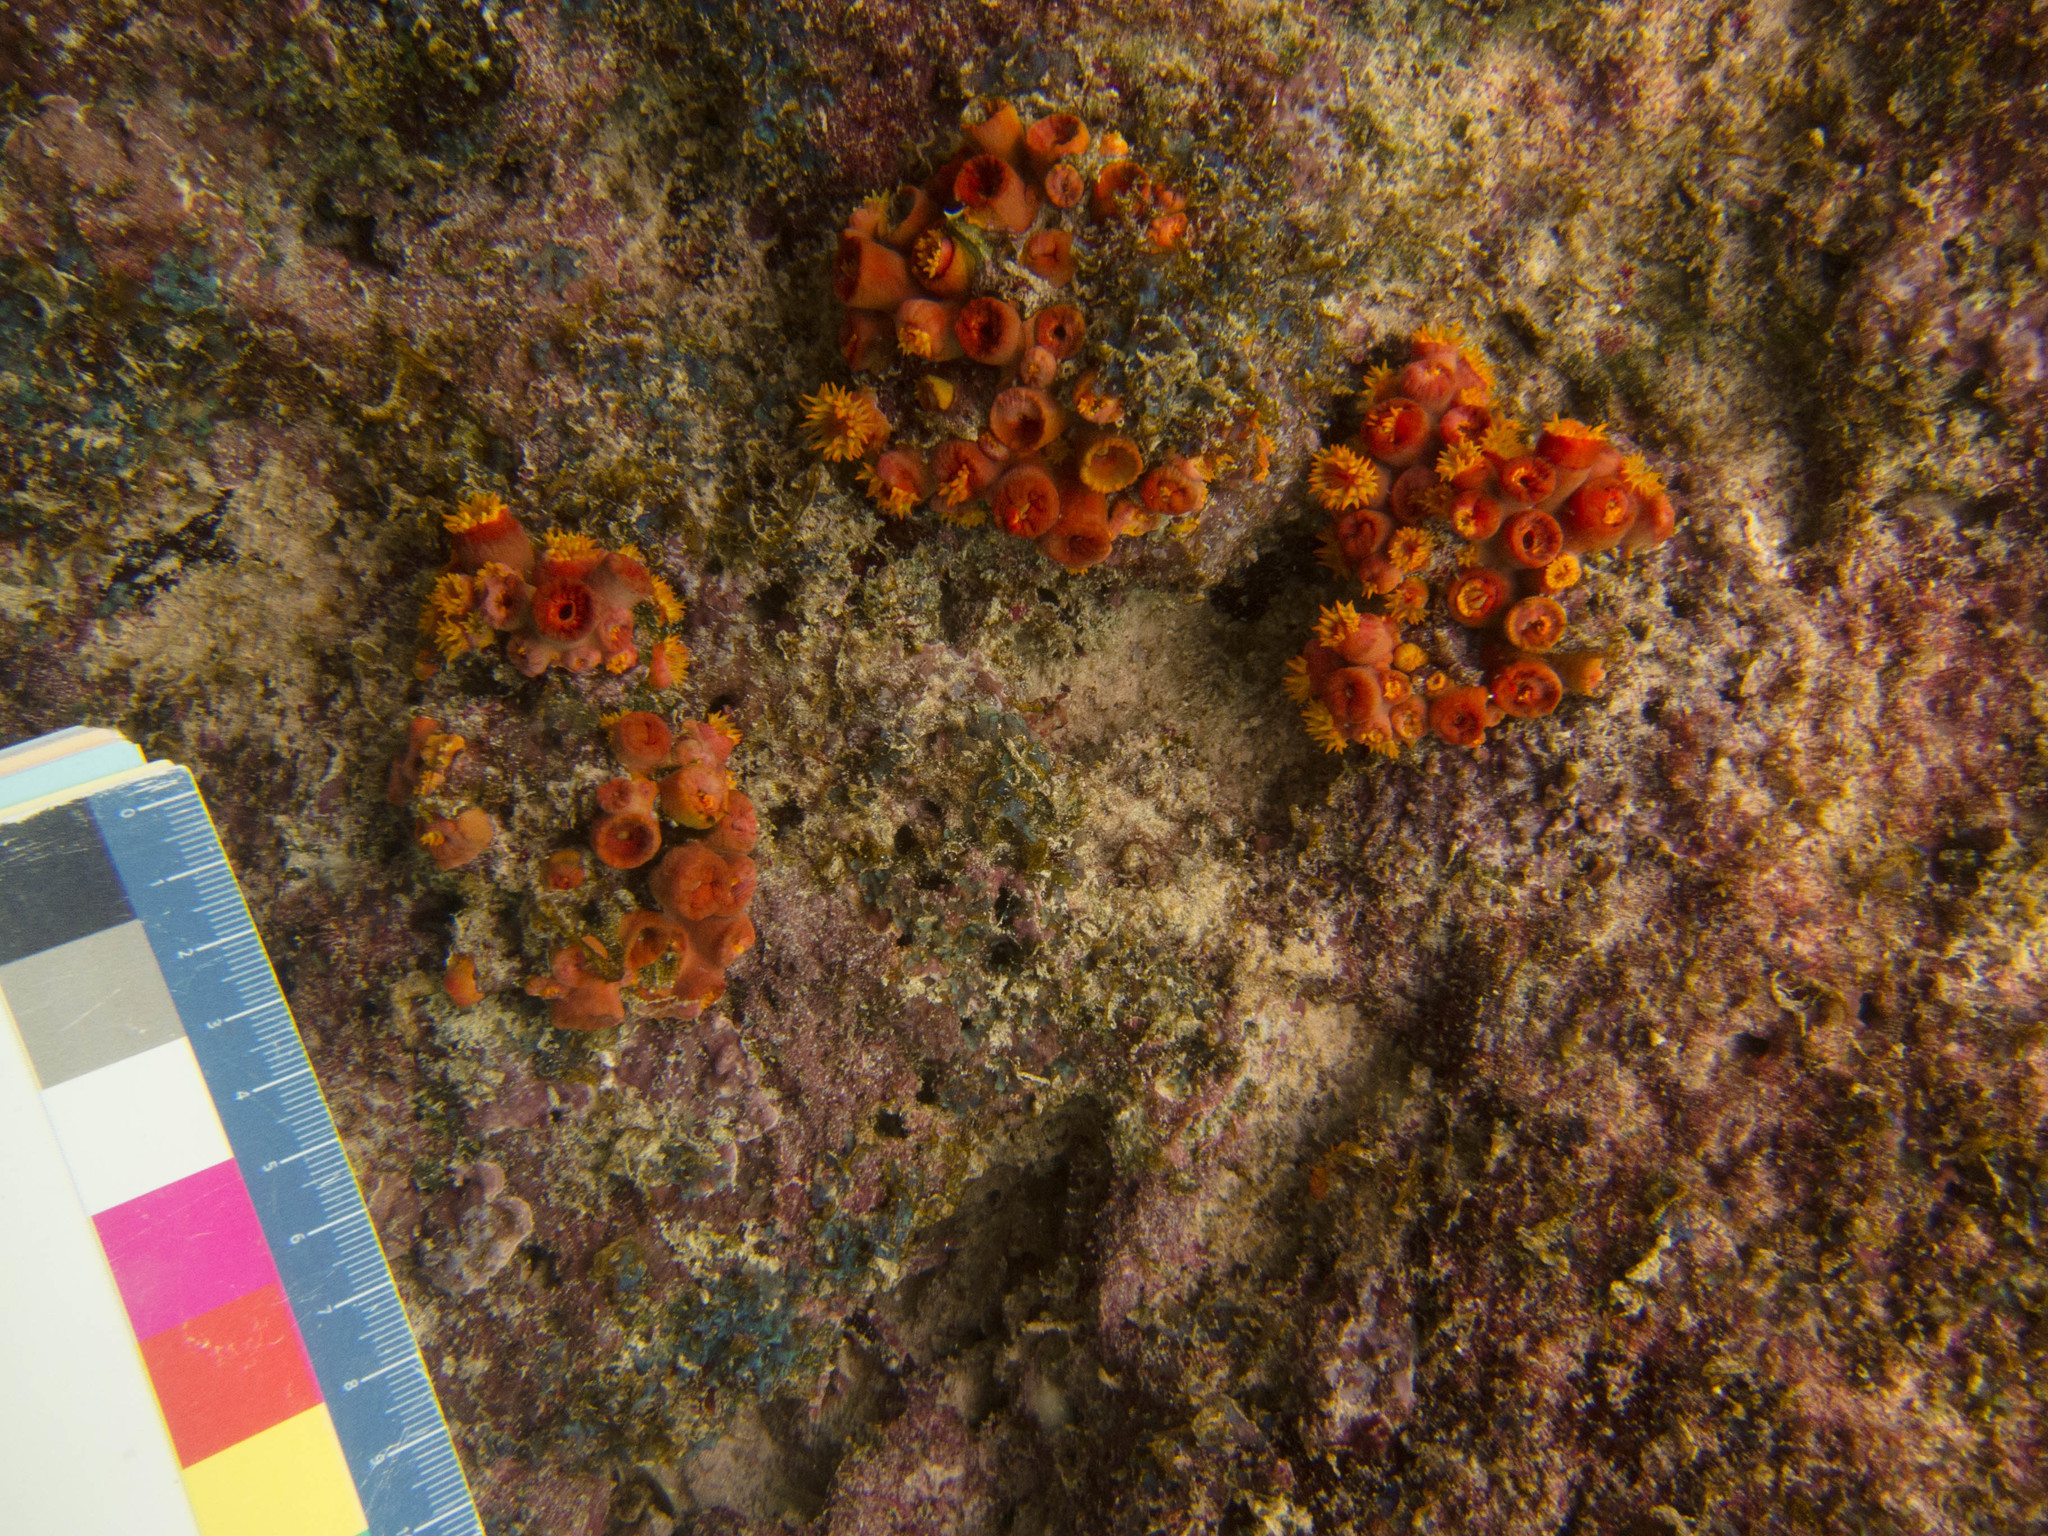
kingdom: Animalia
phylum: Cnidaria
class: Anthozoa
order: Scleractinia
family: Dendrophylliidae
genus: Tubastraea
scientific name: Tubastraea coccinea
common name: Orange cup coral
